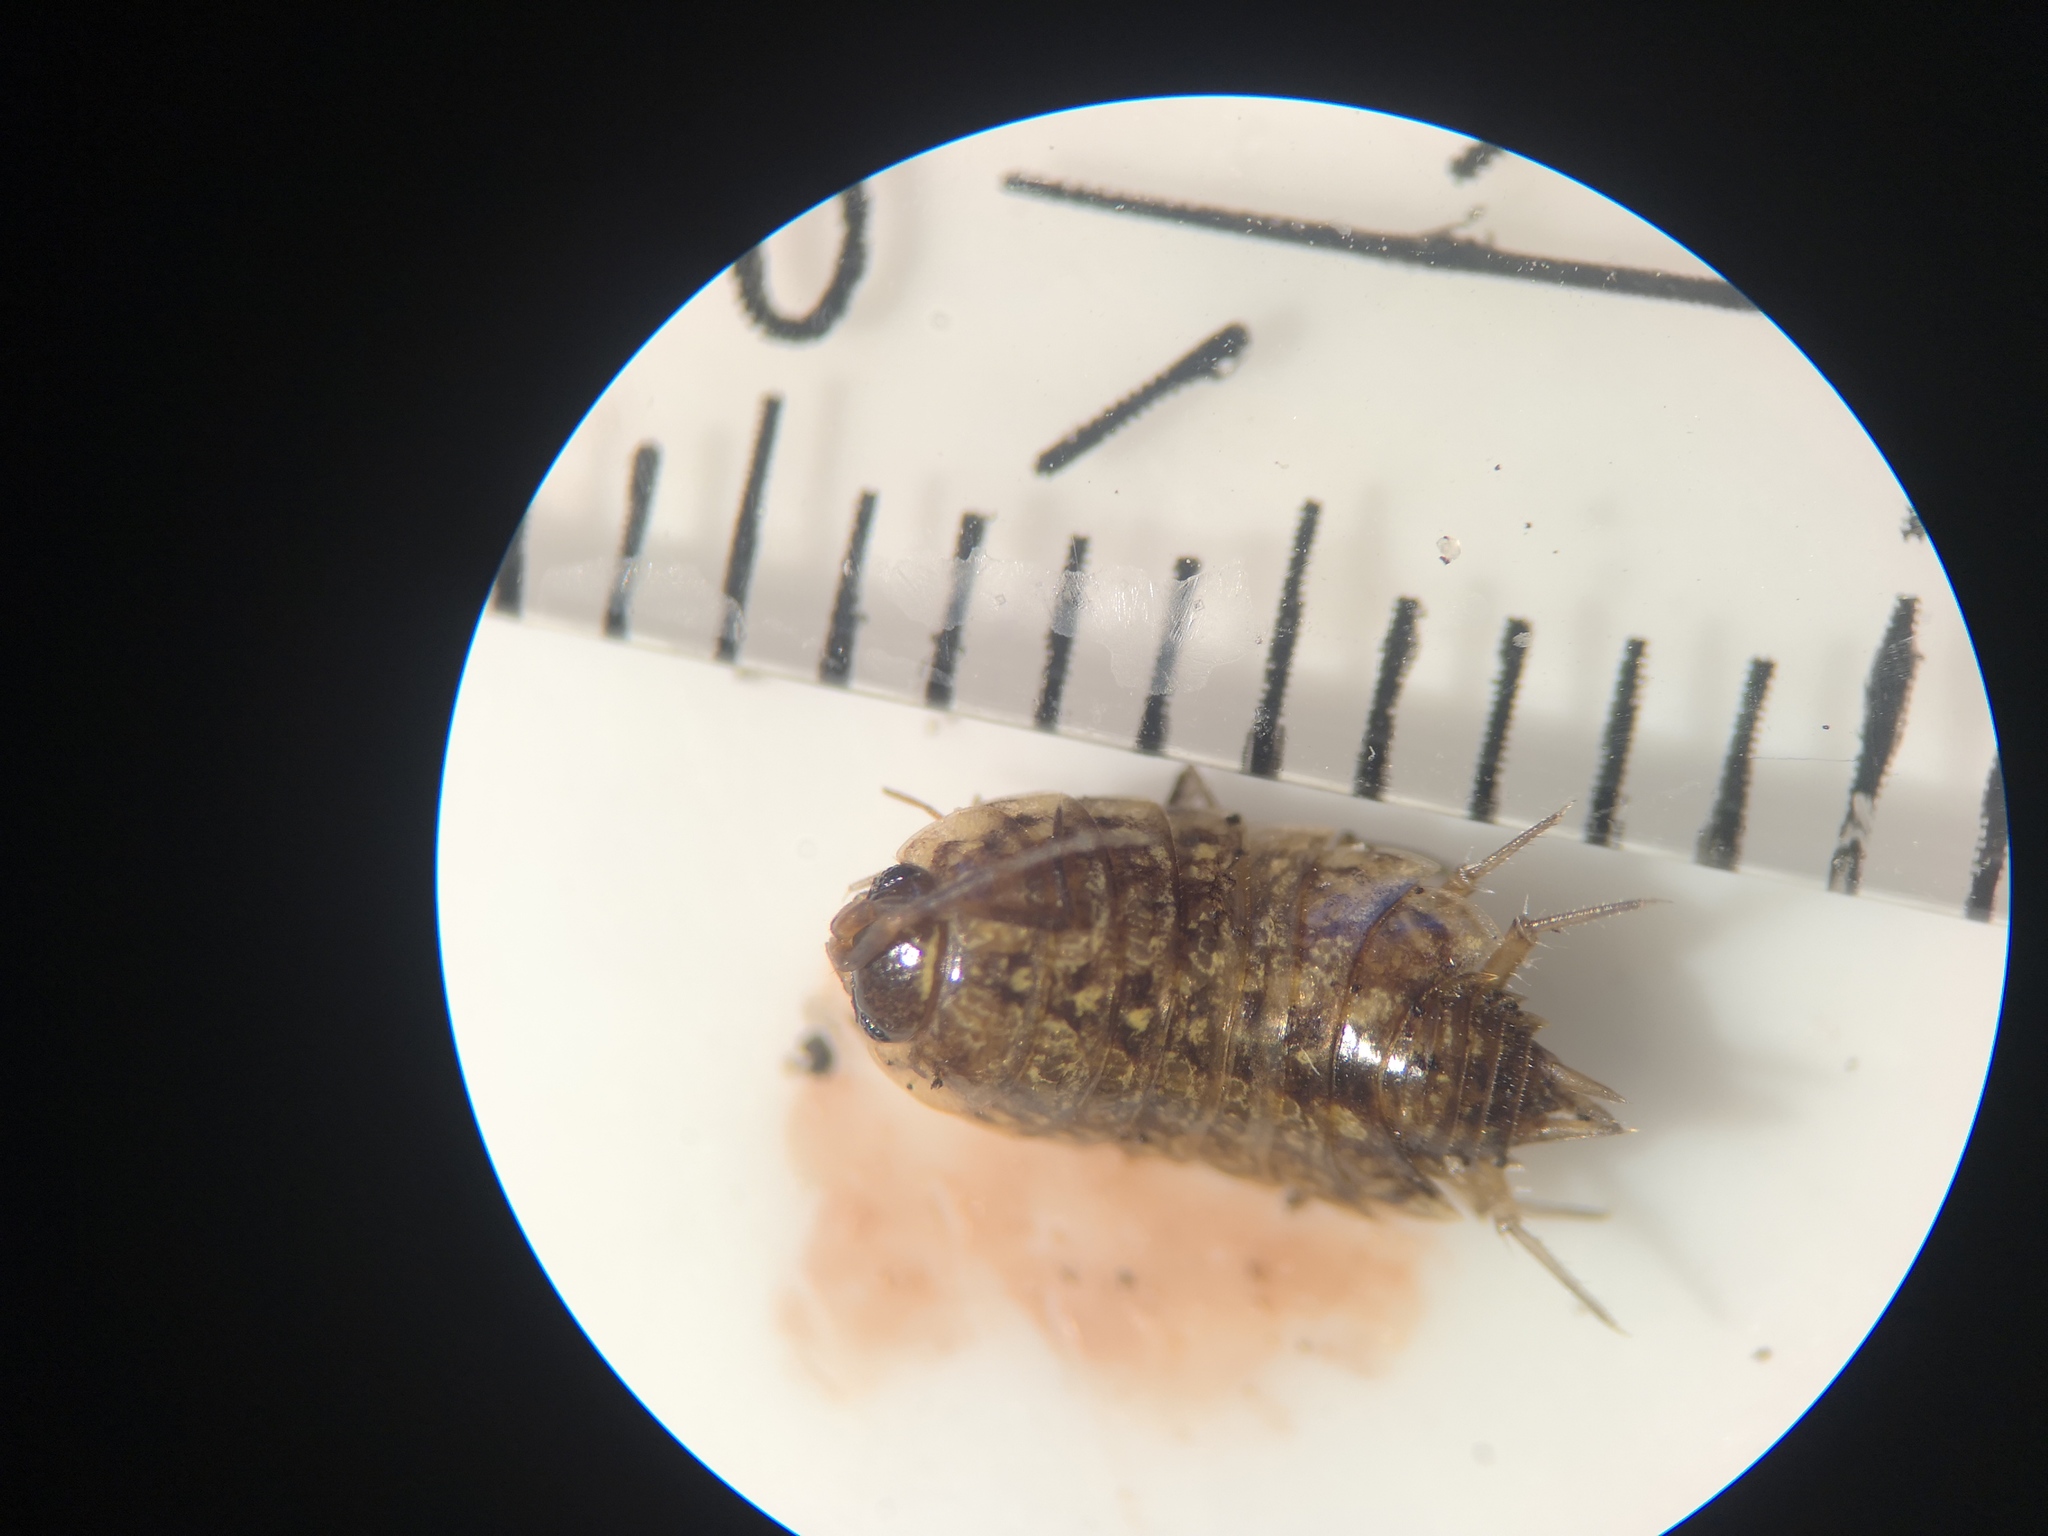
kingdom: Animalia
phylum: Arthropoda
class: Malacostraca
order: Isopoda
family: Philosciidae
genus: Philoscia
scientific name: Philoscia muscorum
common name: Common striped woodlouse
